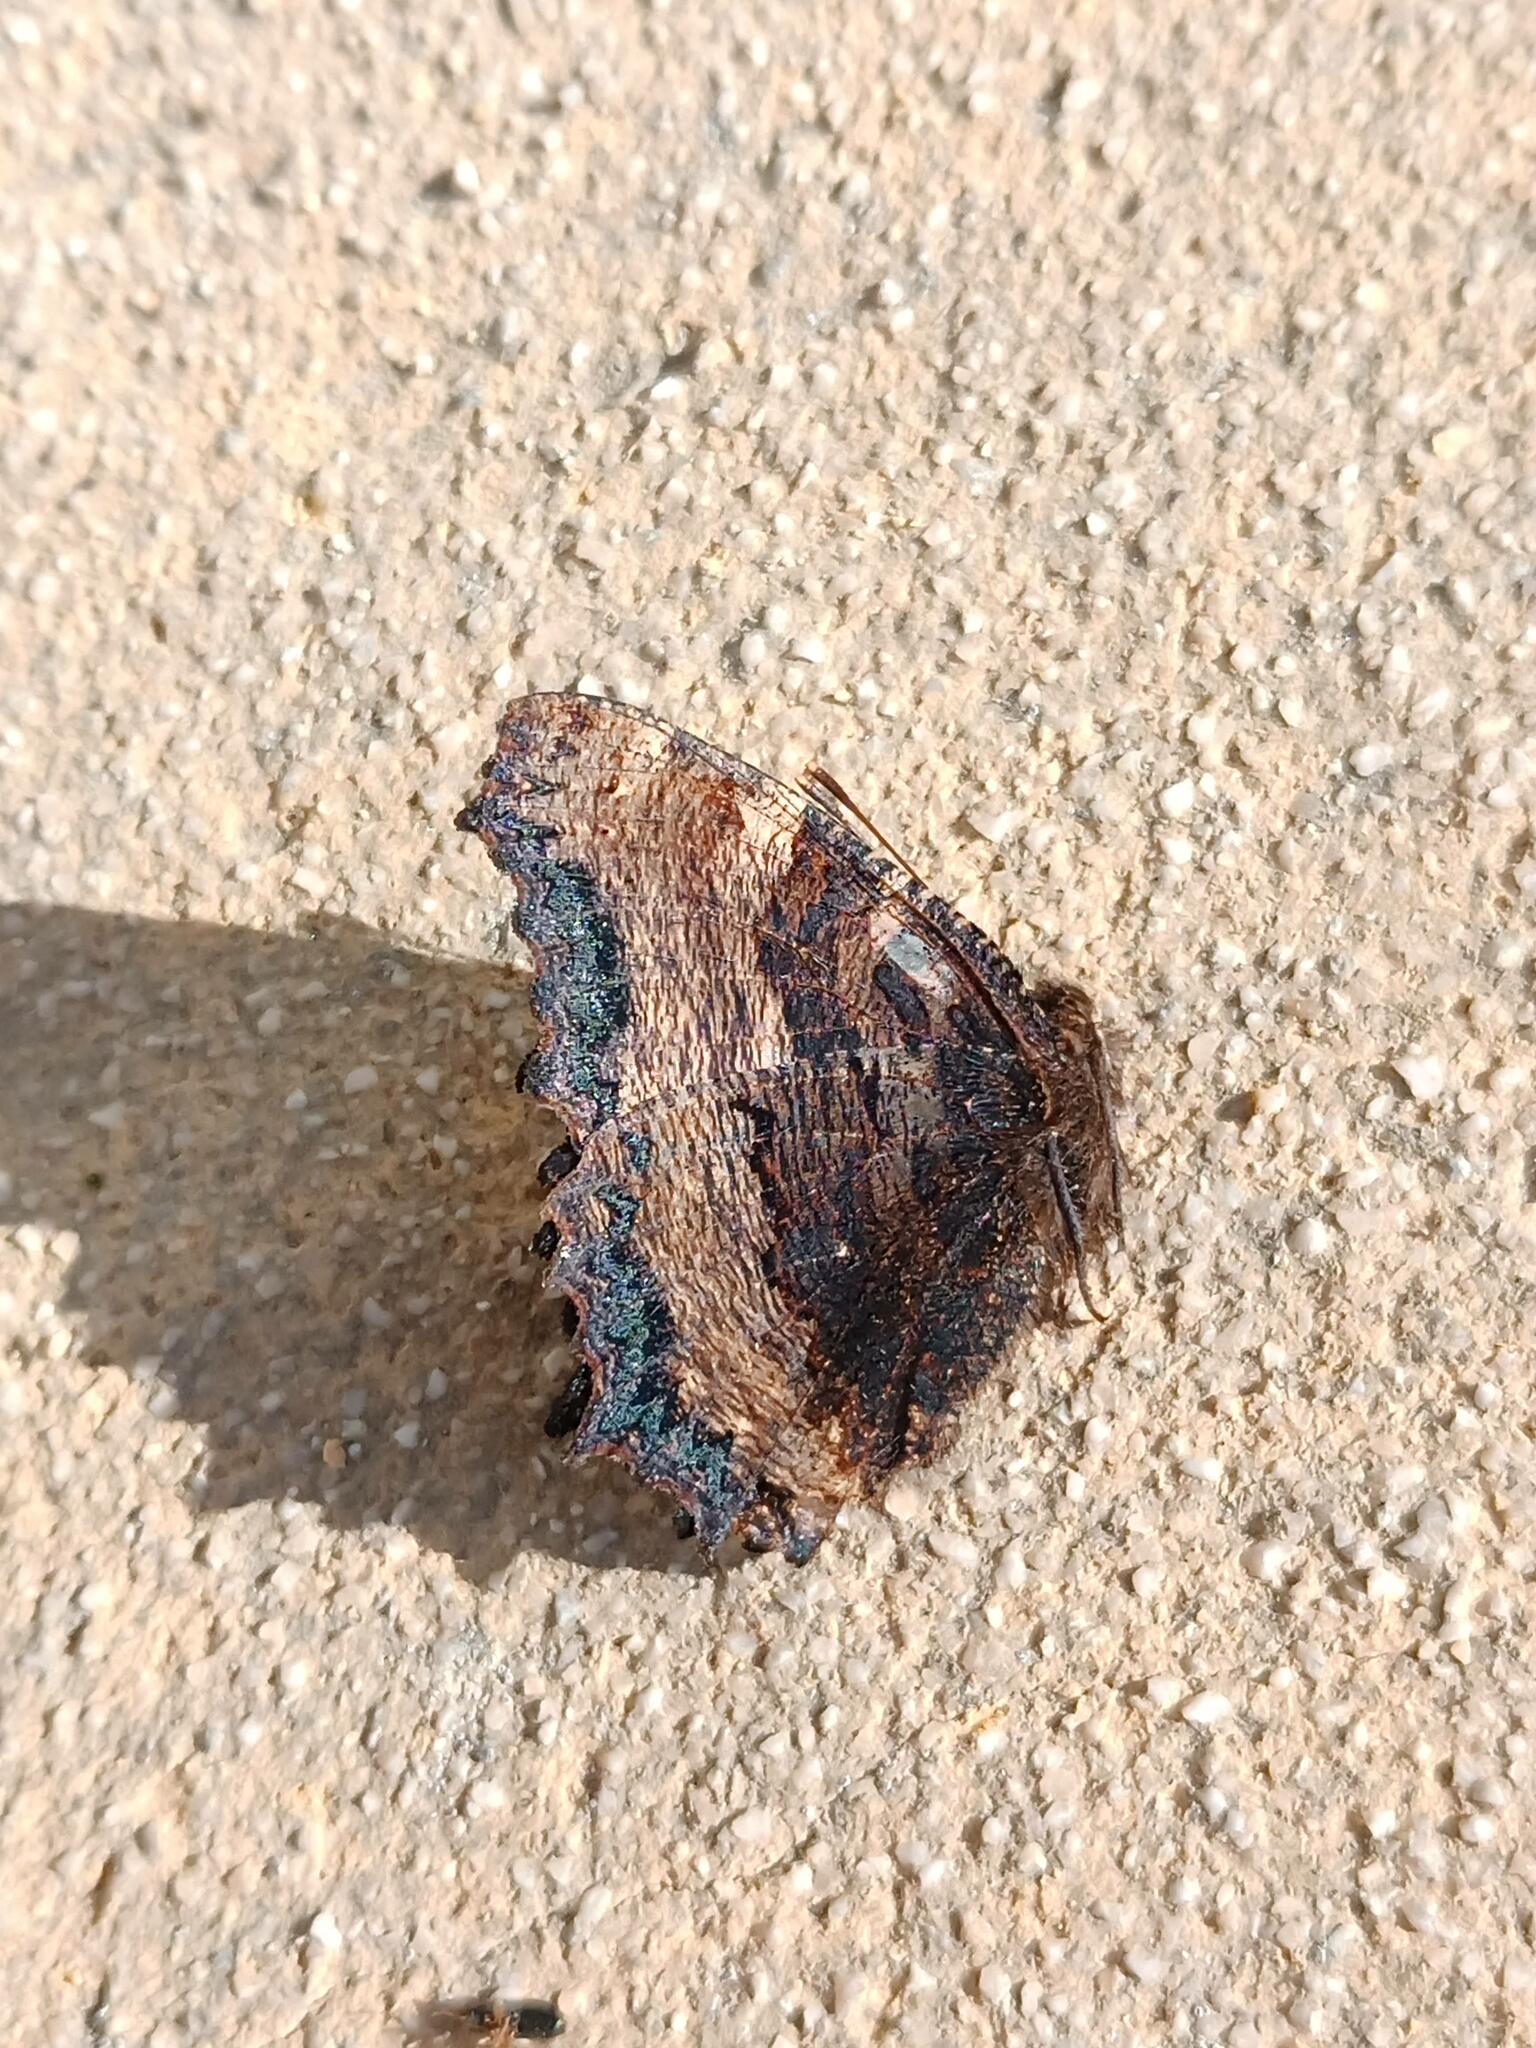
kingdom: Animalia
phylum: Arthropoda
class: Insecta
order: Lepidoptera
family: Nymphalidae
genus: Nymphalis
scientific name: Nymphalis polychloros
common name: Large tortoiseshell
